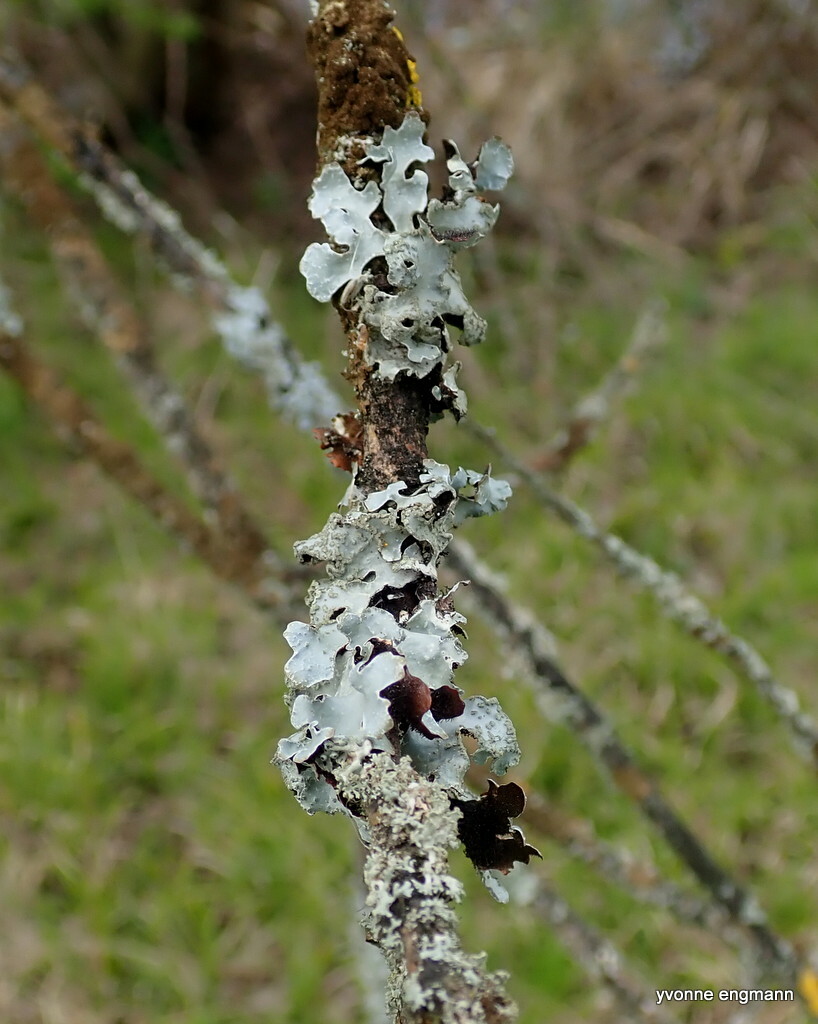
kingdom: Fungi
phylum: Ascomycota
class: Lecanoromycetes
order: Lecanorales
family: Parmeliaceae
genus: Parmelia
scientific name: Parmelia sulcata
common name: Netted shield lichen
